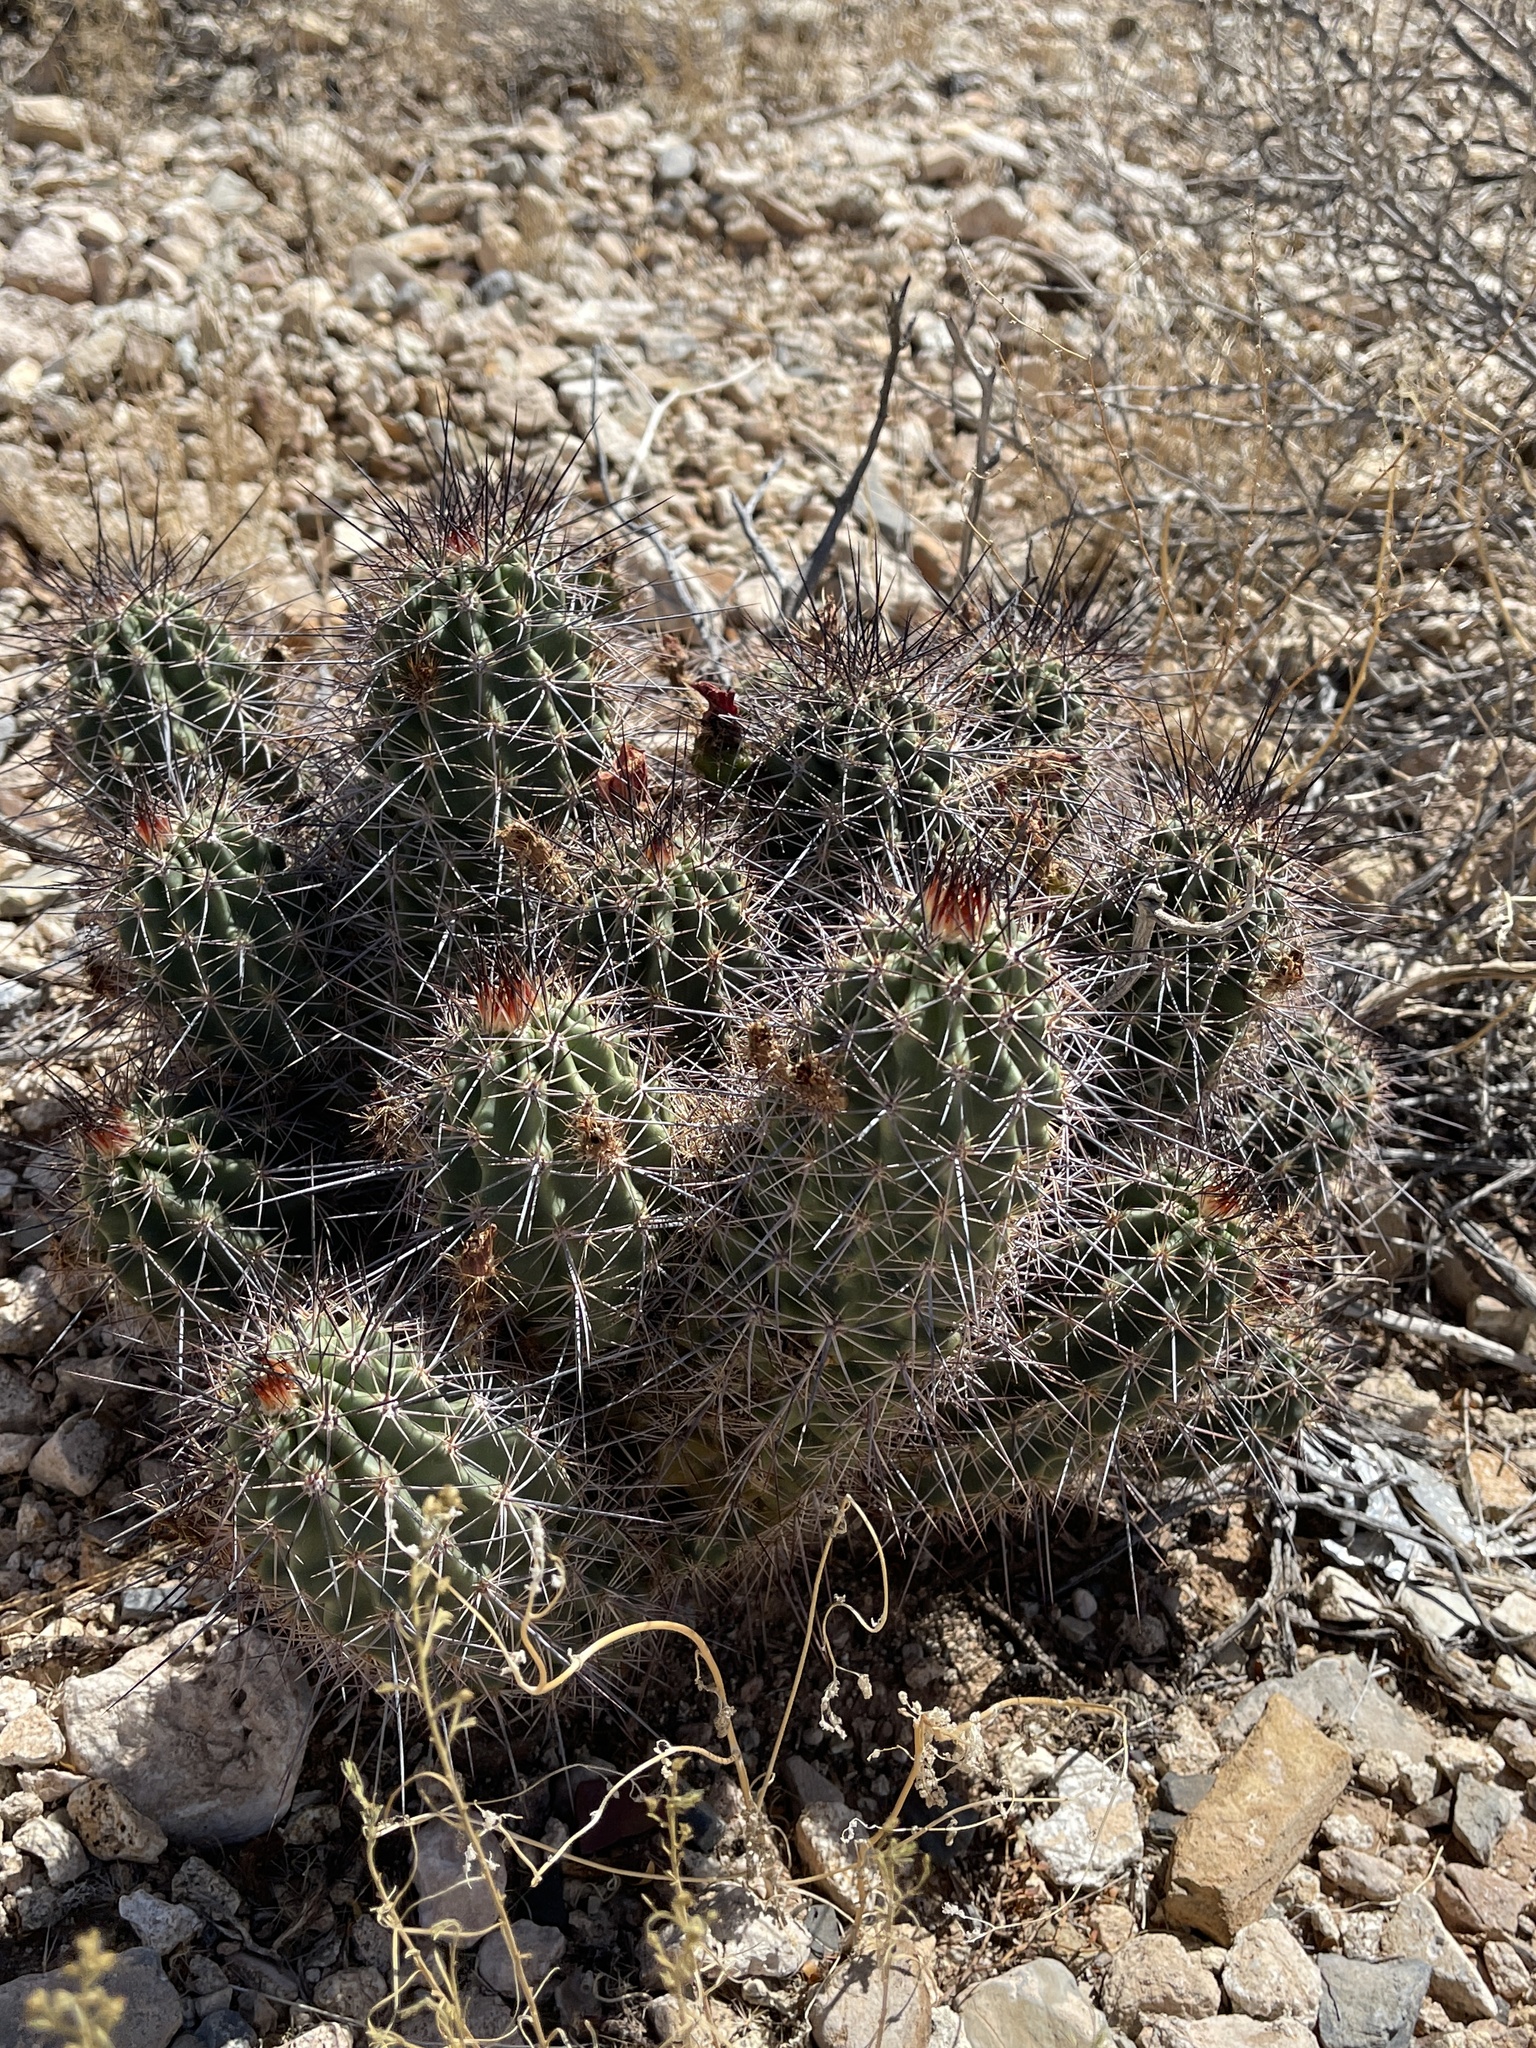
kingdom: Plantae
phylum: Tracheophyta
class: Magnoliopsida
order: Caryophyllales
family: Cactaceae
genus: Echinocereus
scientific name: Echinocereus coccineus
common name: Scarlet hedgehog cactus
